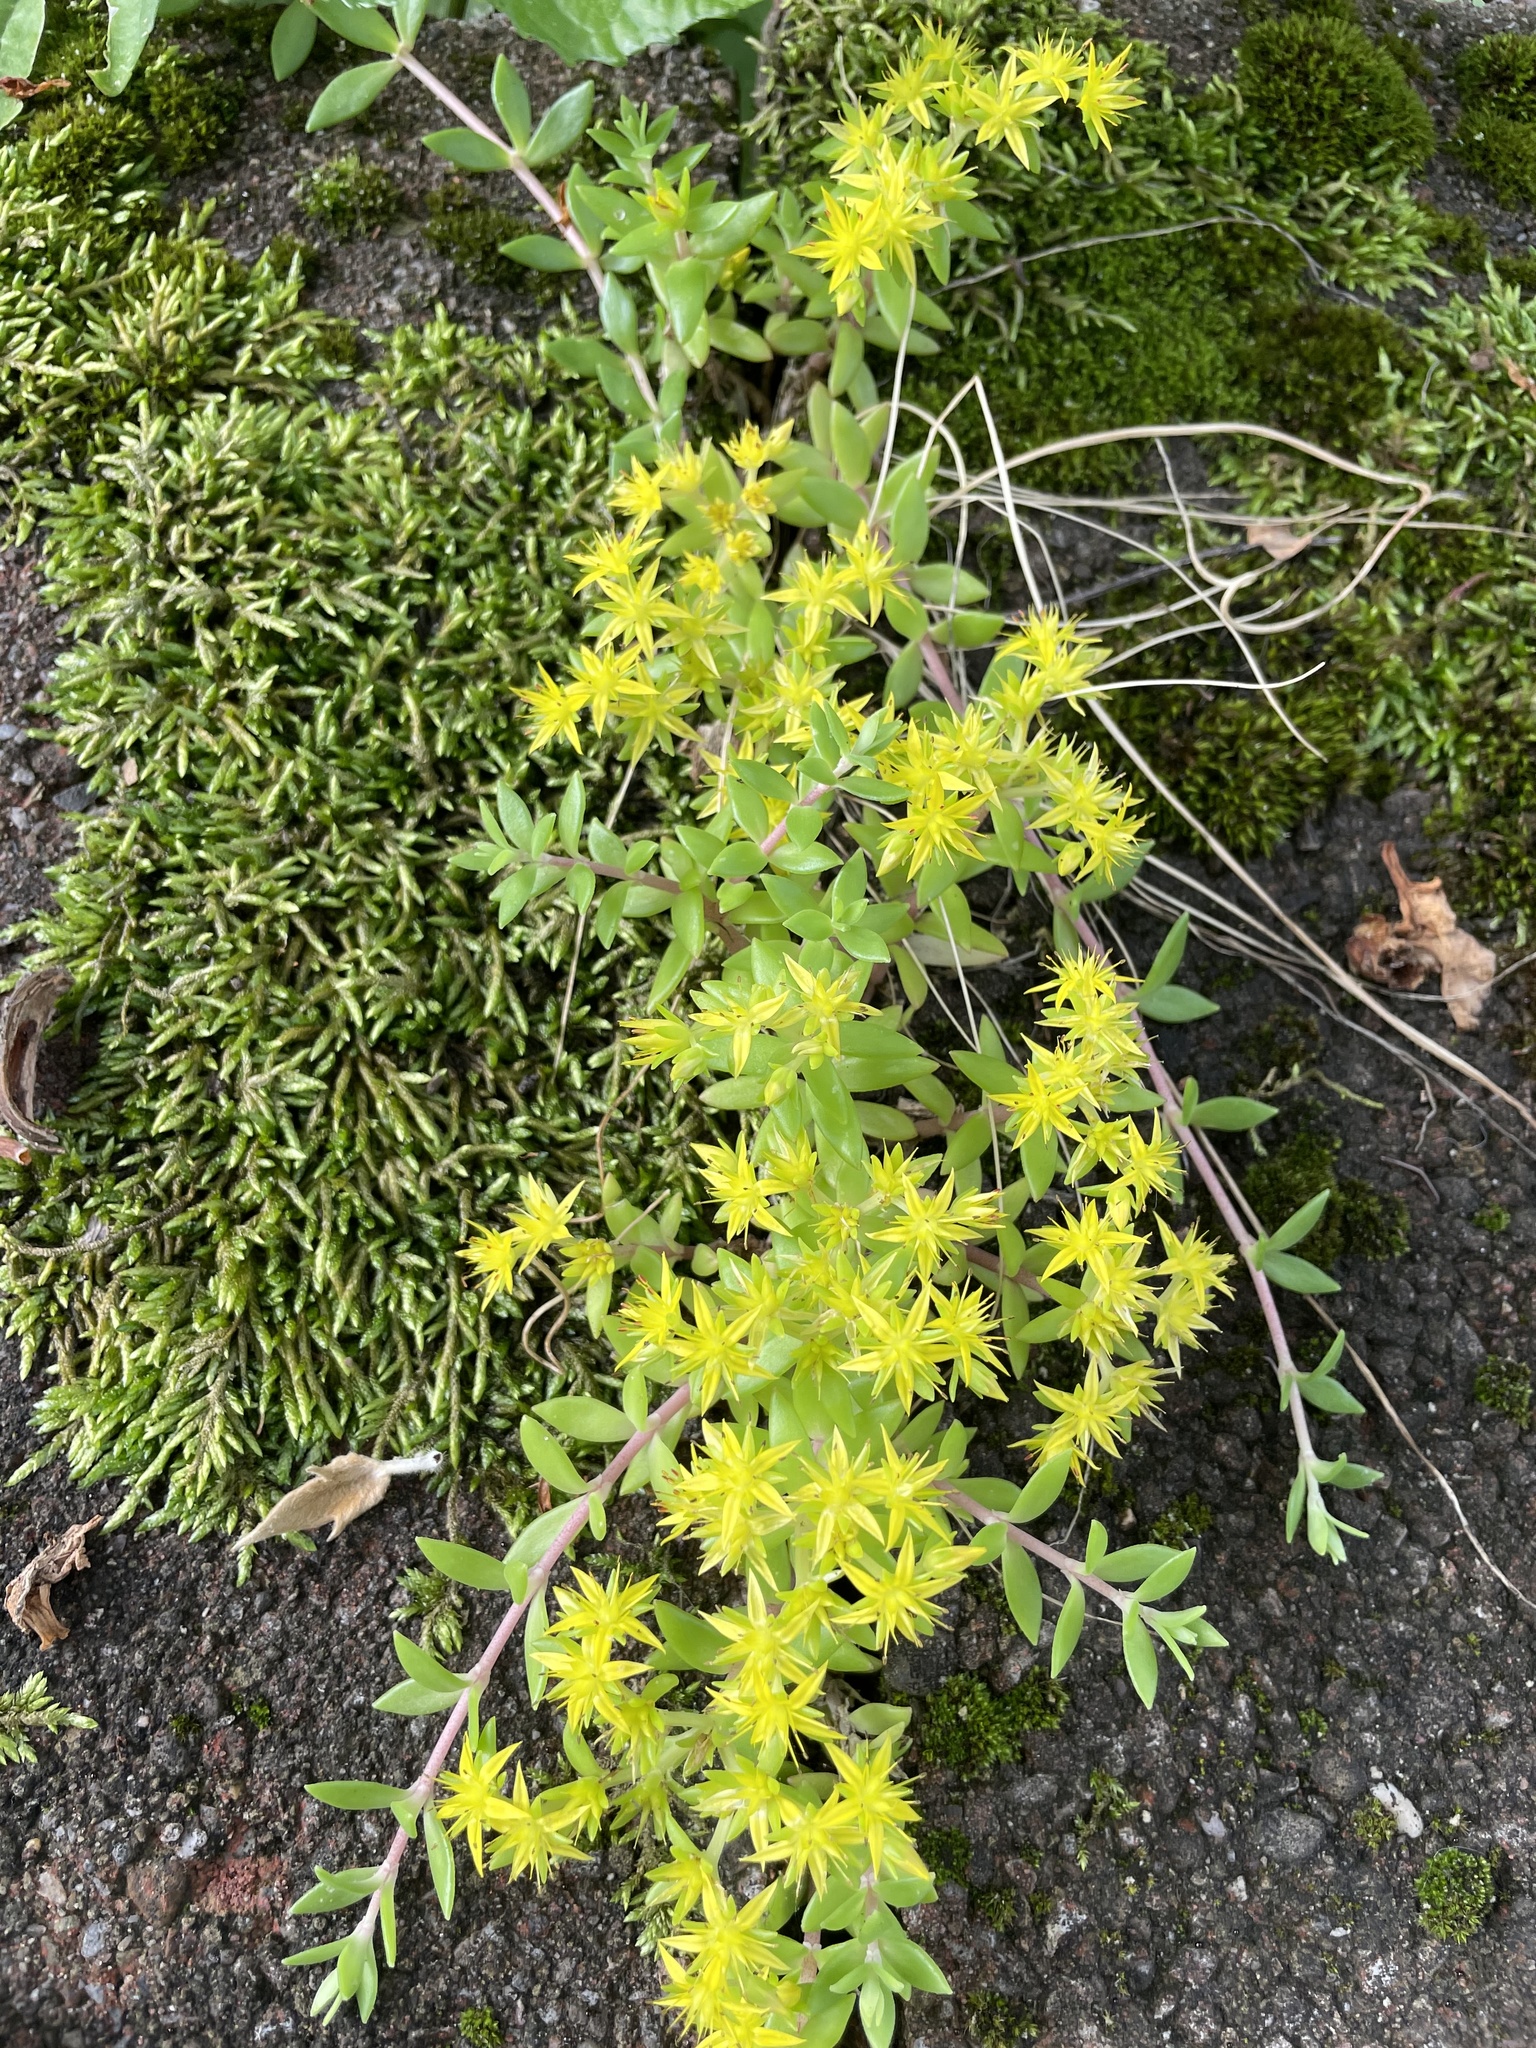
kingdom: Plantae
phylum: Tracheophyta
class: Magnoliopsida
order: Saxifragales
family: Crassulaceae
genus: Sedum
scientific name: Sedum sarmentosum
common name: Stringy stonecrop
